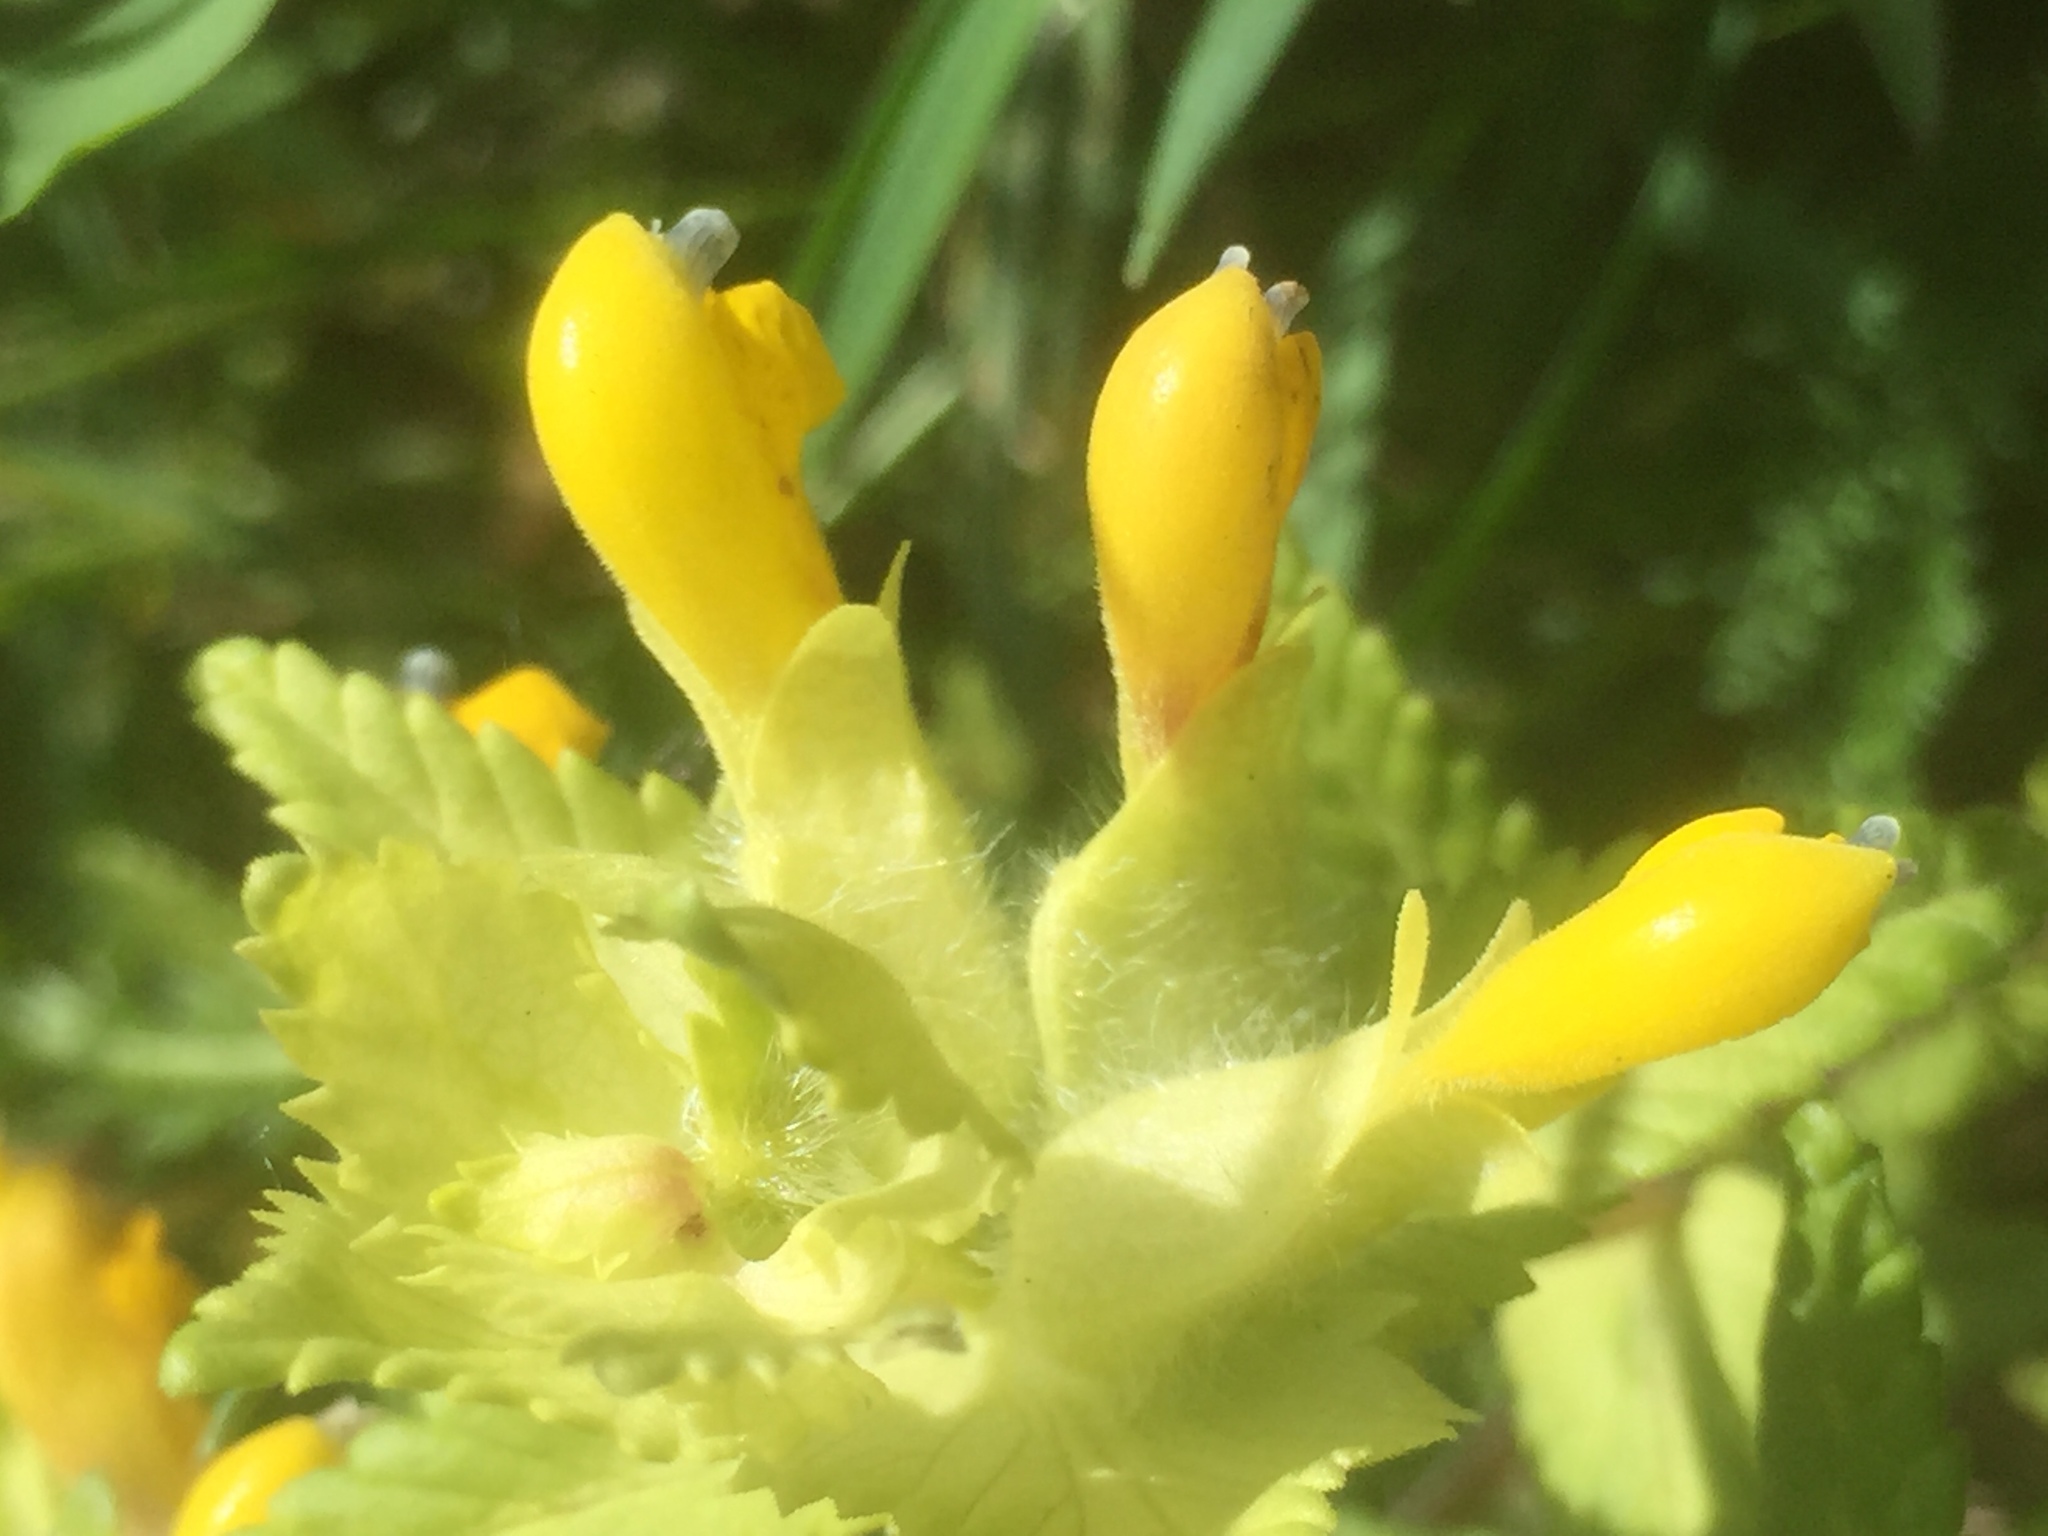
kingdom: Plantae
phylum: Tracheophyta
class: Magnoliopsida
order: Lamiales
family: Orobanchaceae
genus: Rhinanthus
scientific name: Rhinanthus alectorolophus
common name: Greater yellow-rattle
